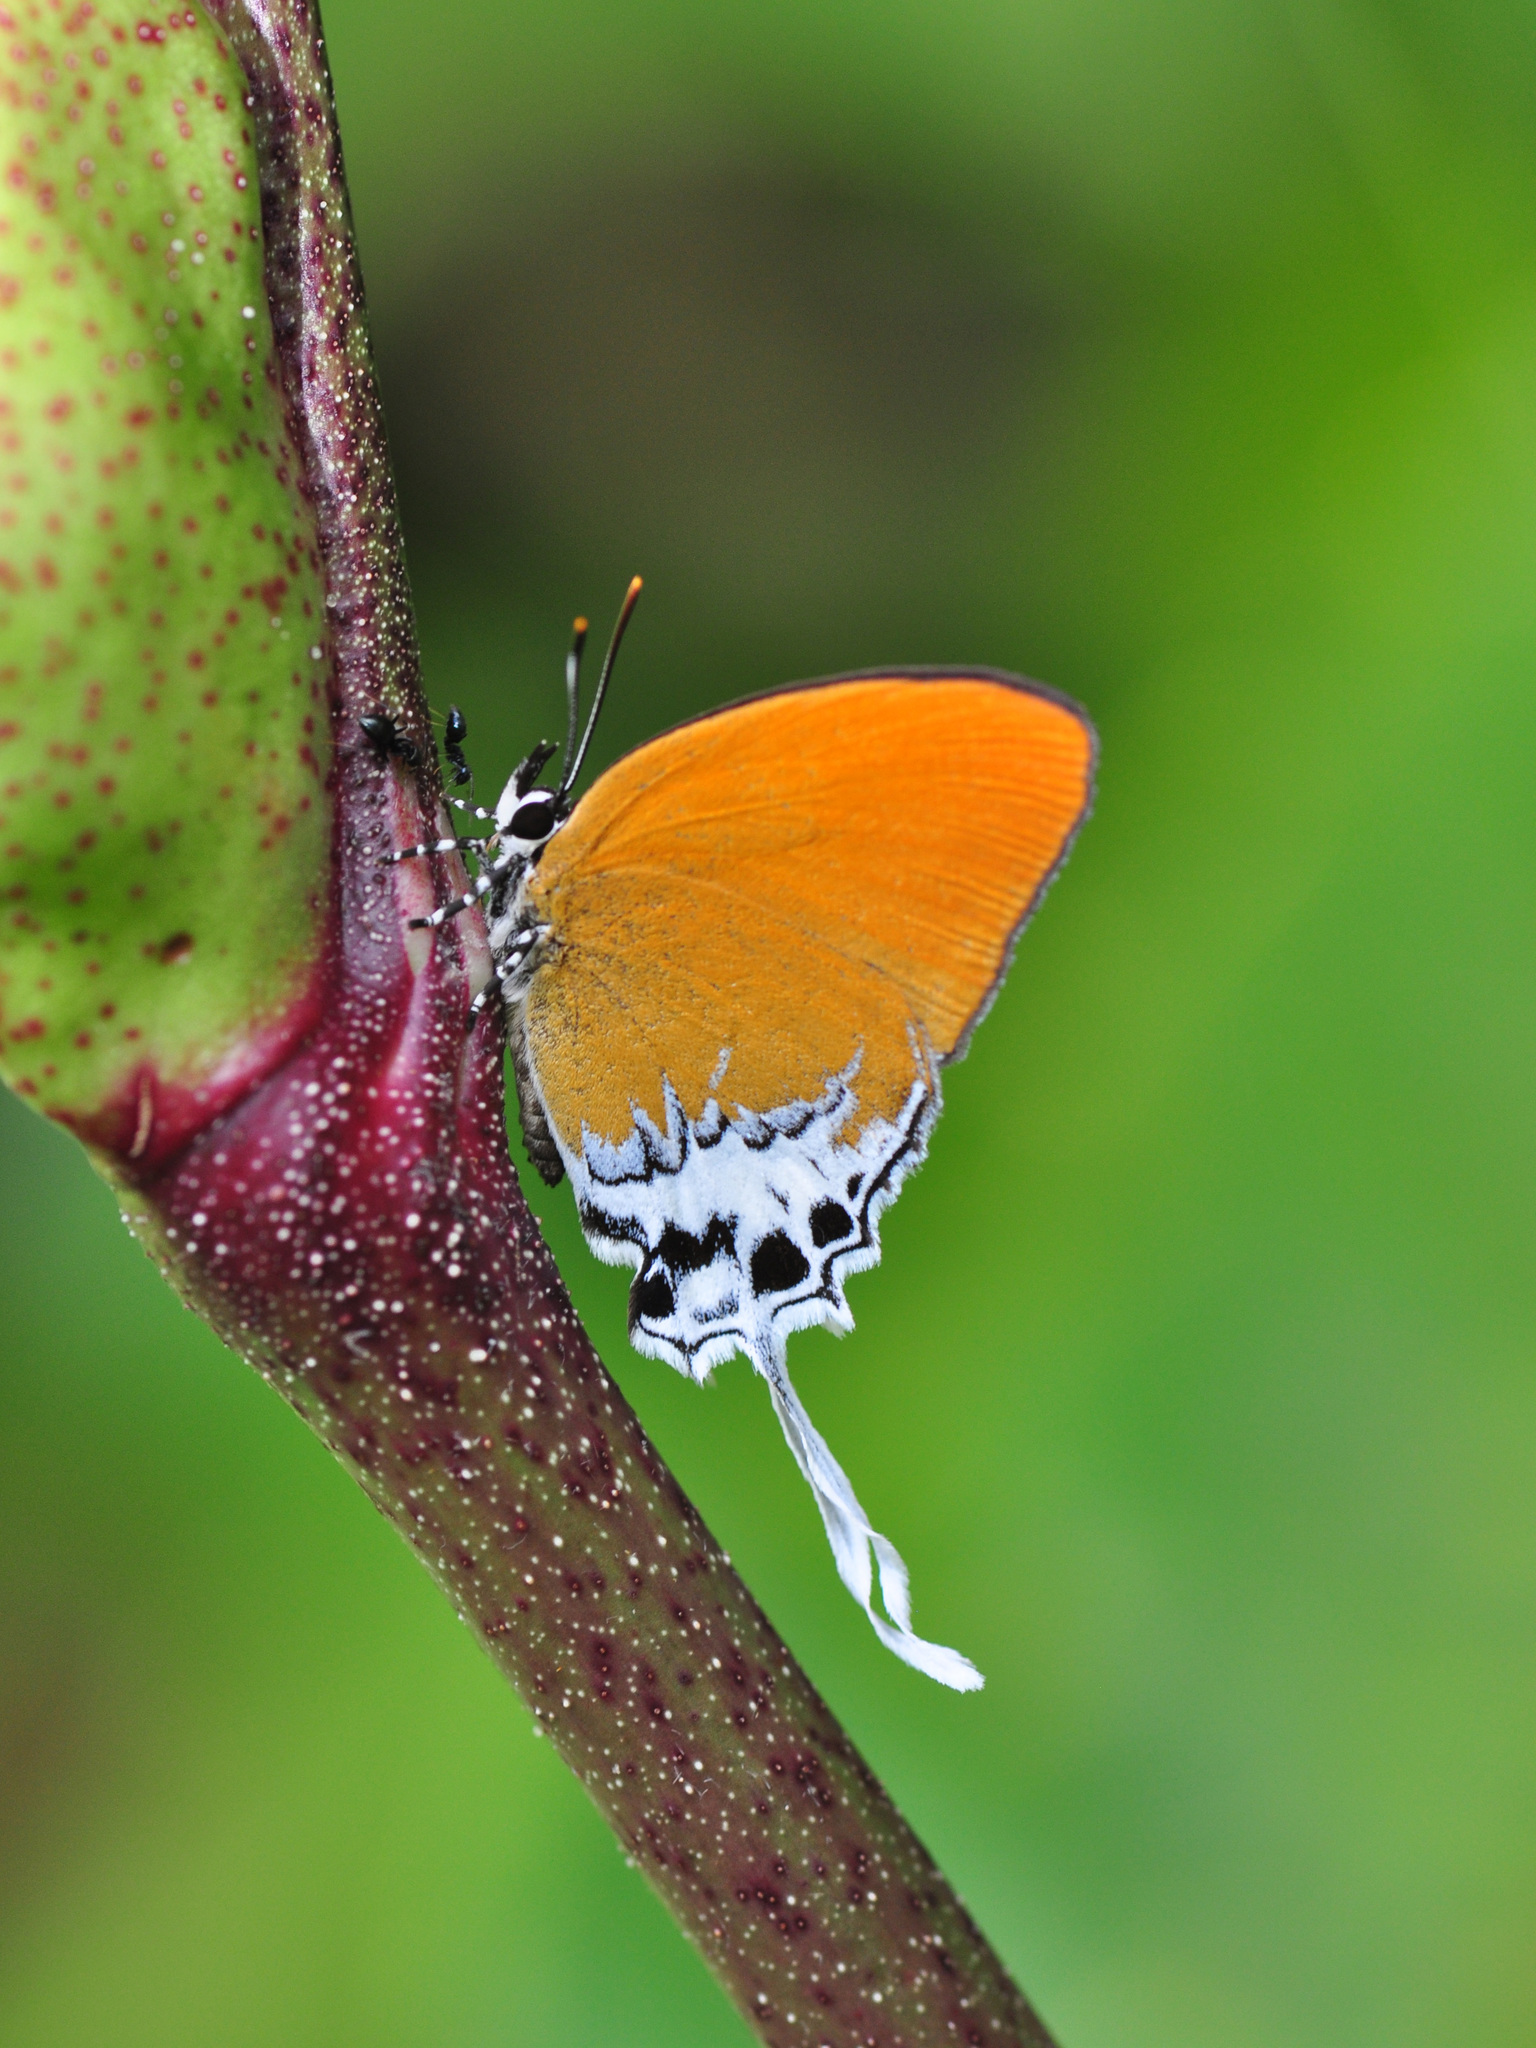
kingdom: Animalia
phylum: Arthropoda
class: Insecta
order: Lepidoptera
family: Lycaenidae
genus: Eooxylides
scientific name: Eooxylides tharis
